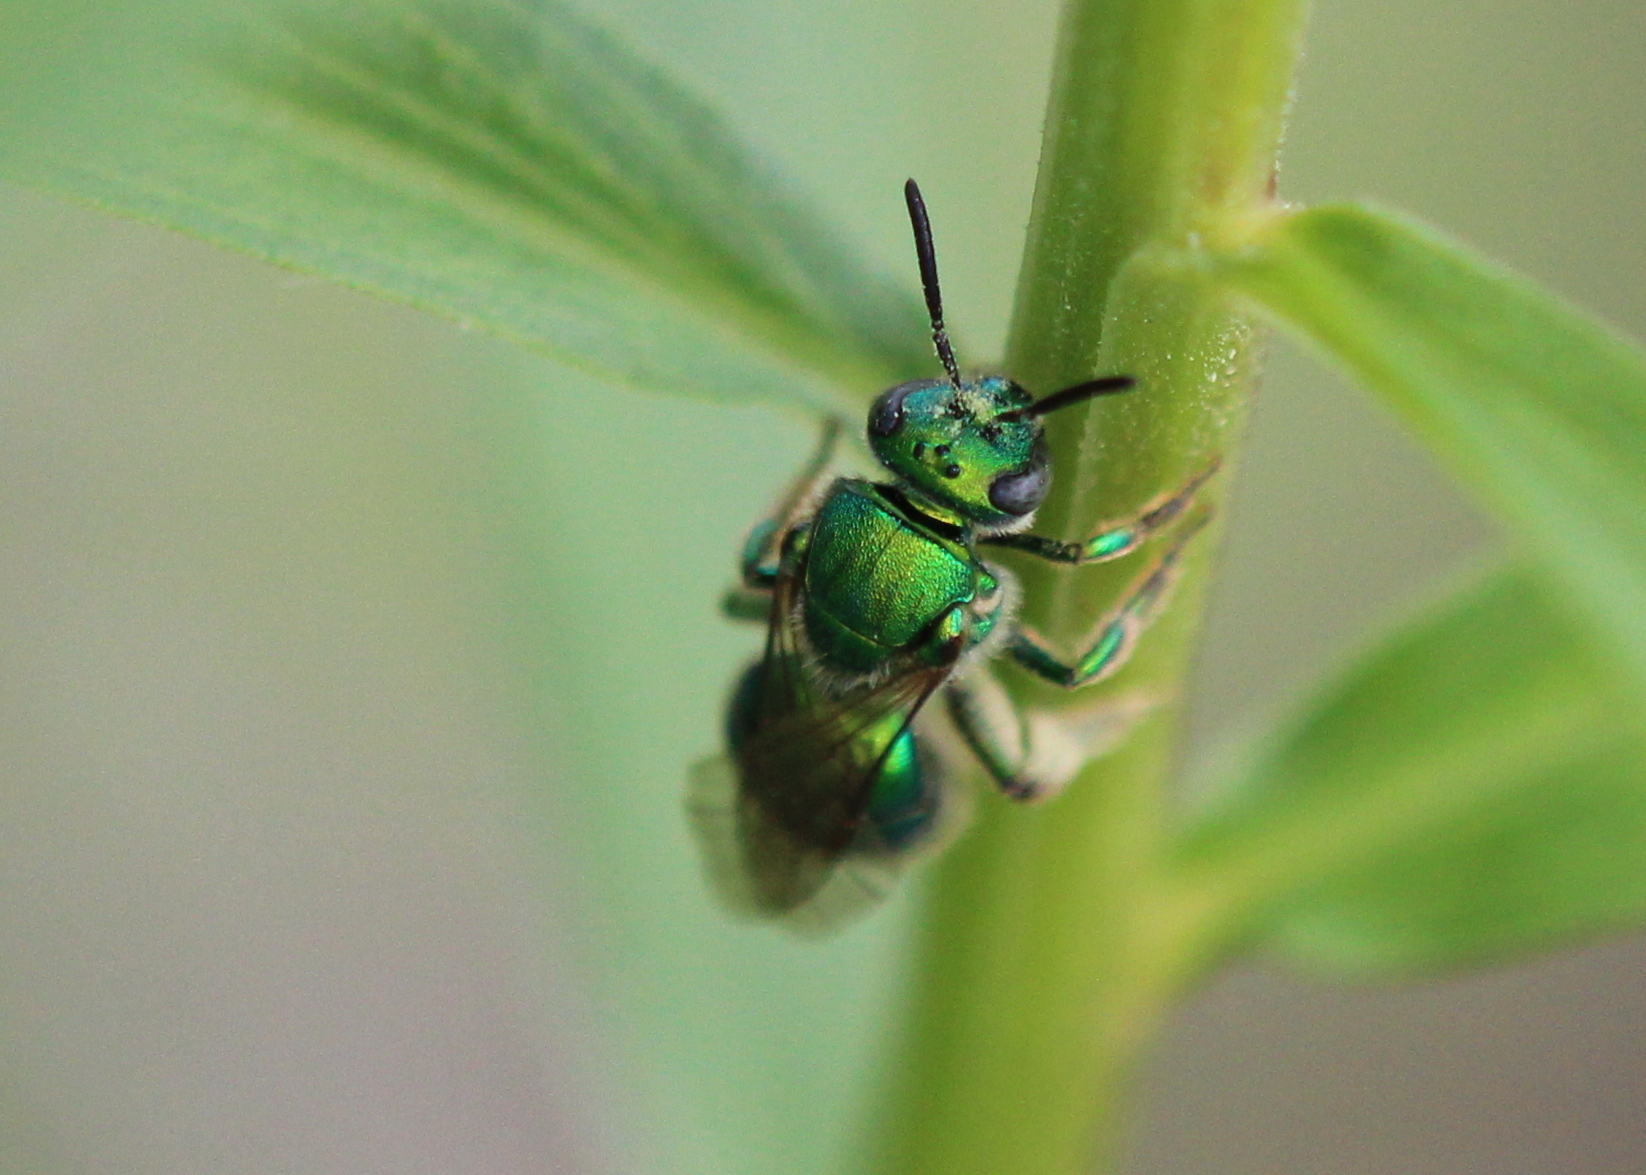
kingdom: Animalia
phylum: Arthropoda
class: Insecta
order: Hymenoptera
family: Halictidae
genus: Augochloropsis
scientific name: Augochloropsis viridula
